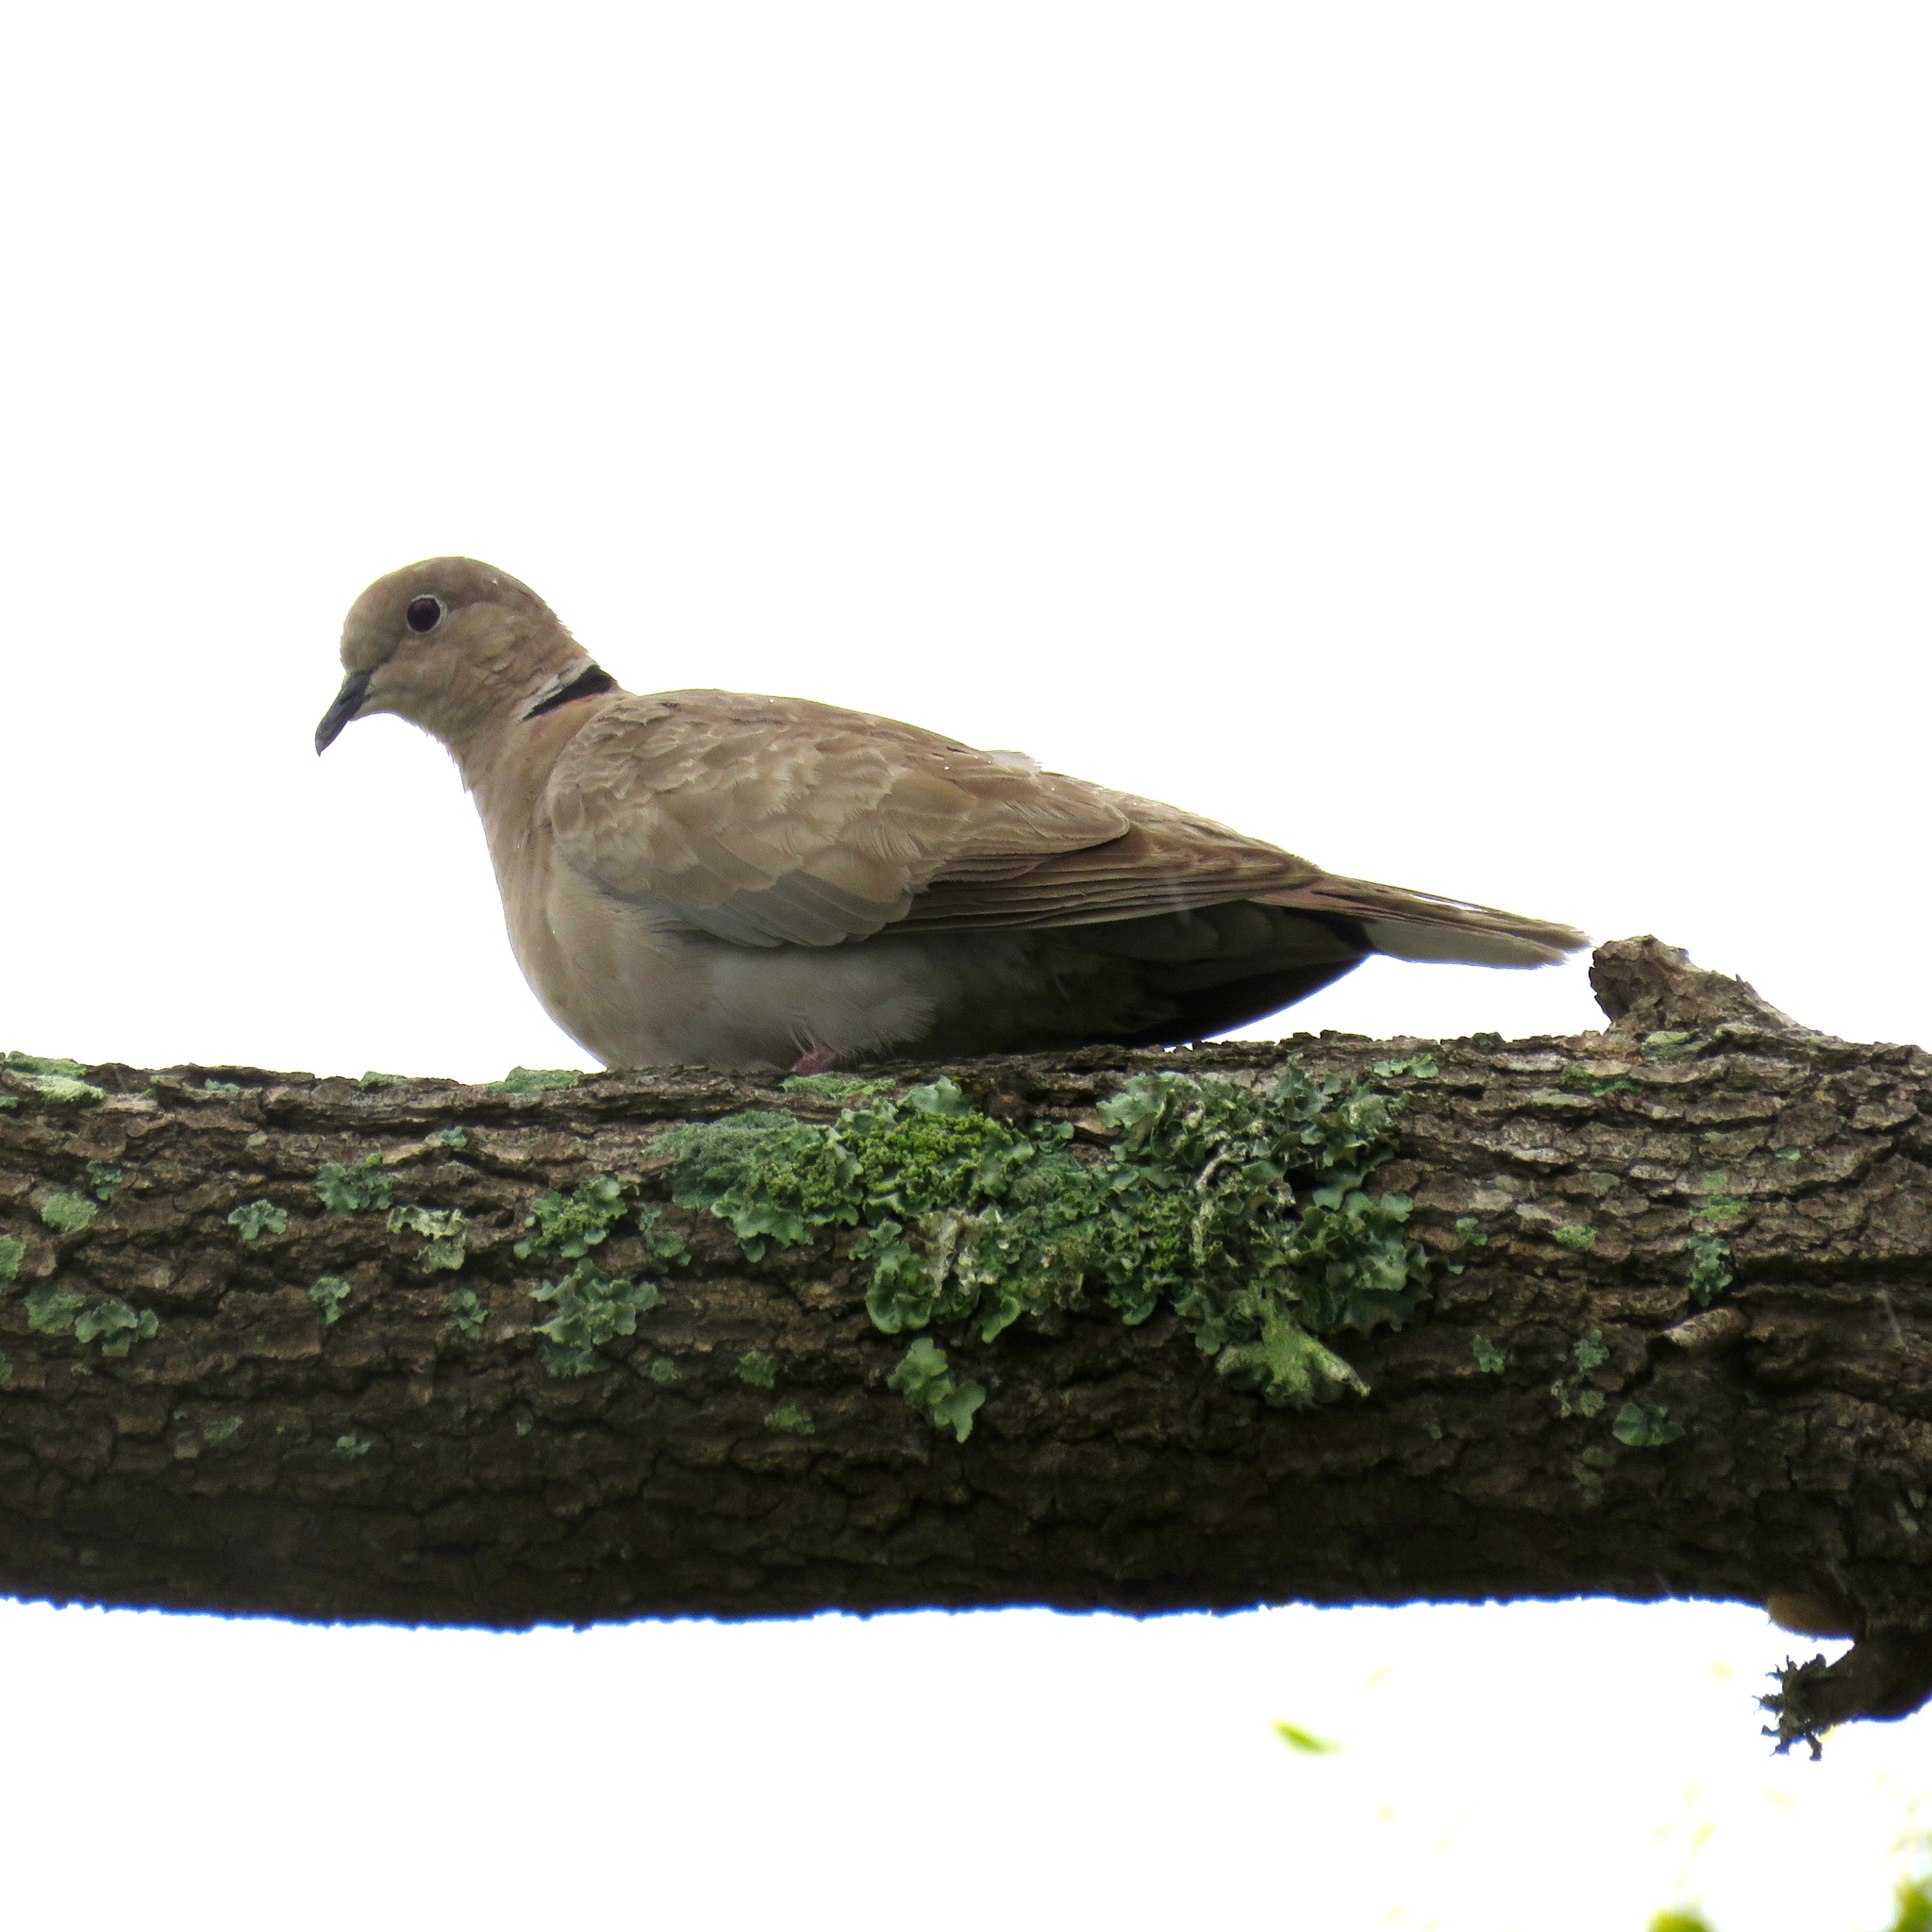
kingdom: Animalia
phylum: Chordata
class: Aves
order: Columbiformes
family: Columbidae
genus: Streptopelia
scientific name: Streptopelia decaocto
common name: Eurasian collared dove
